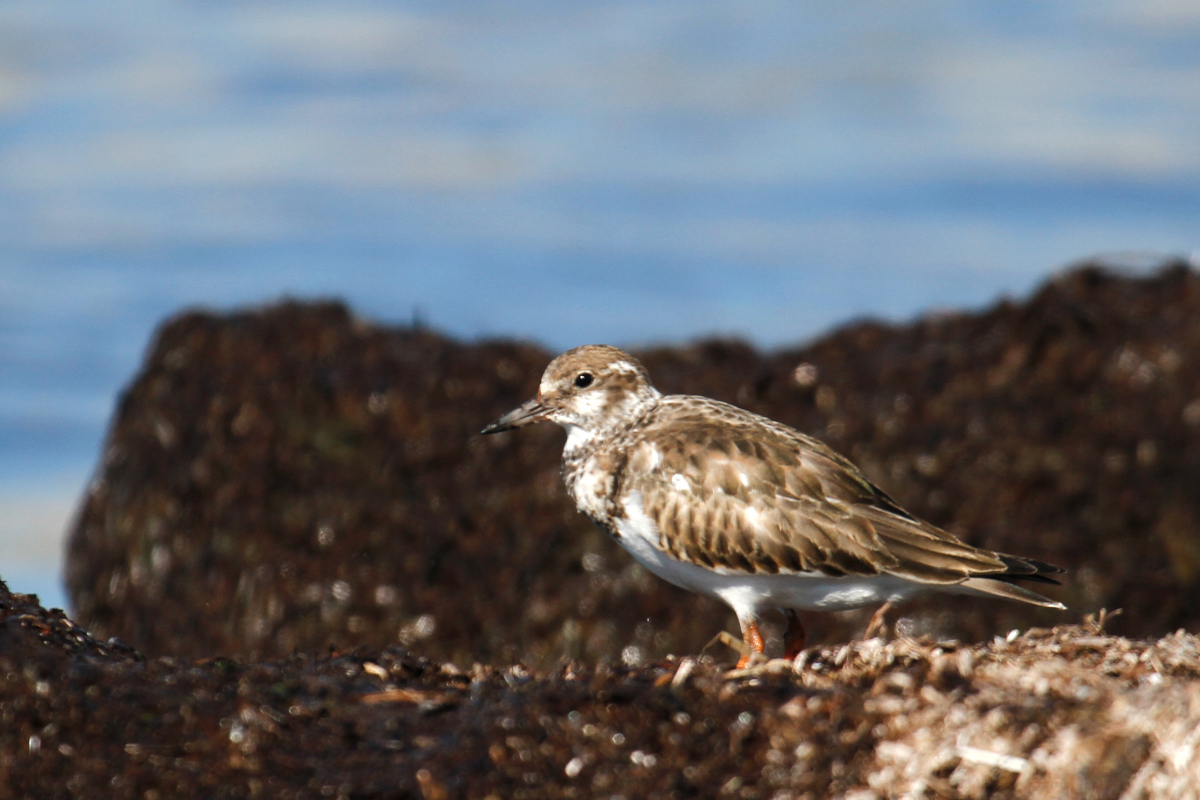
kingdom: Animalia
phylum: Chordata
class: Aves
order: Charadriiformes
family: Scolopacidae
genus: Arenaria
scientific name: Arenaria interpres
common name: Ruddy turnstone
